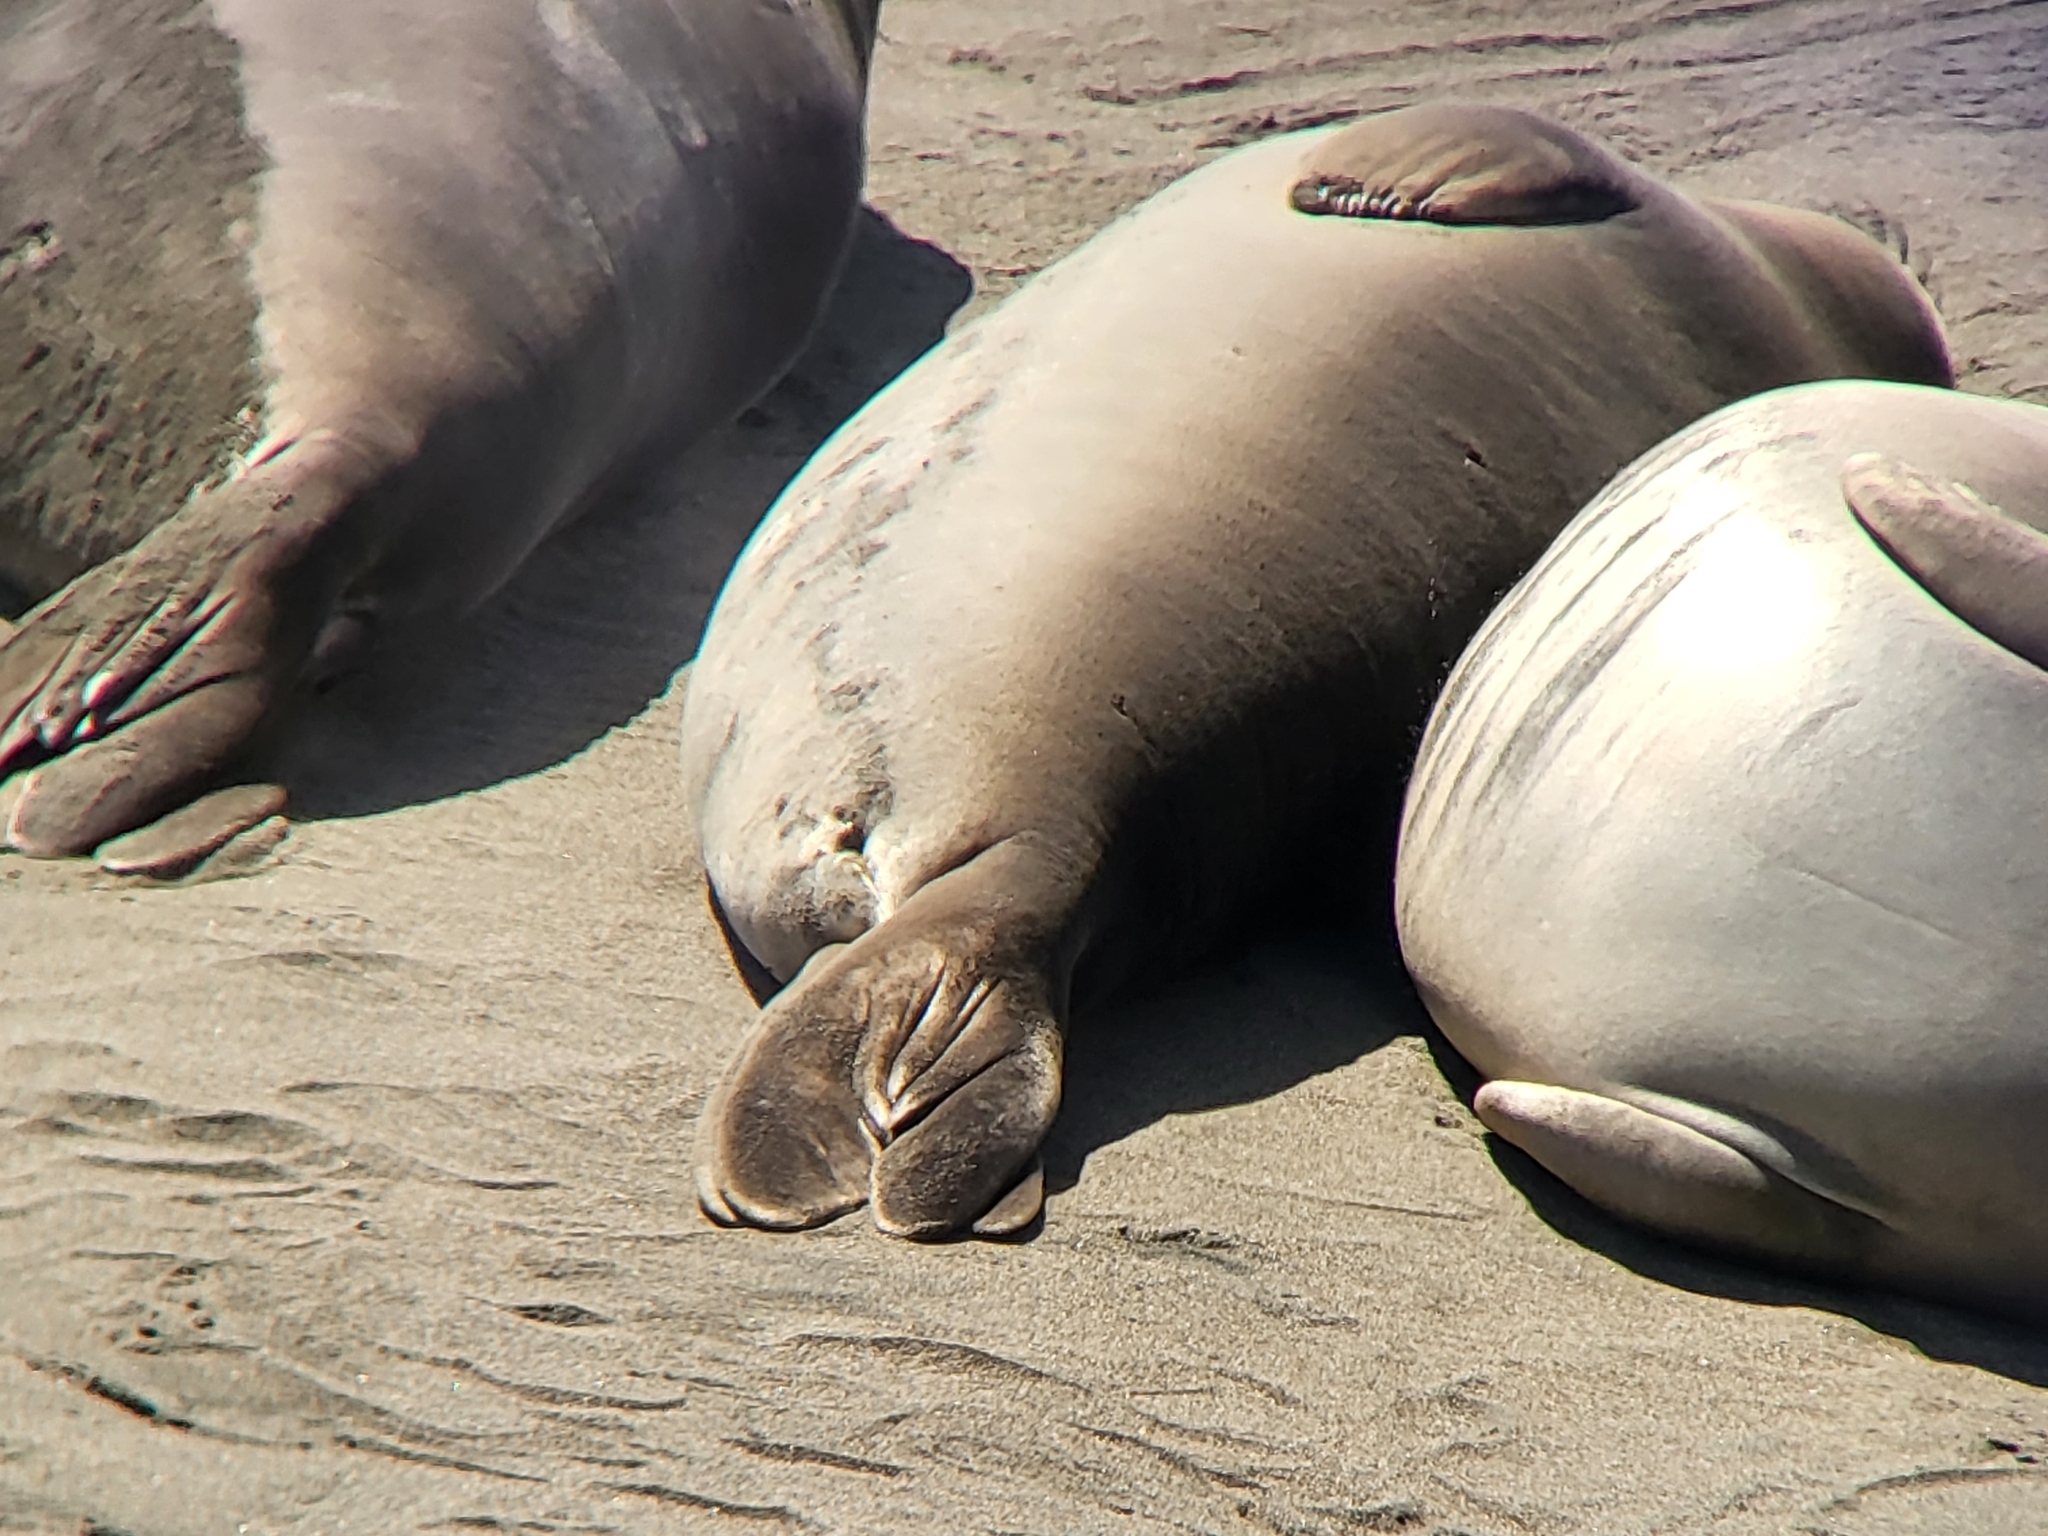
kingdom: Animalia
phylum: Chordata
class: Mammalia
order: Carnivora
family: Phocidae
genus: Mirounga
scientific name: Mirounga angustirostris
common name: Northern elephant seal
